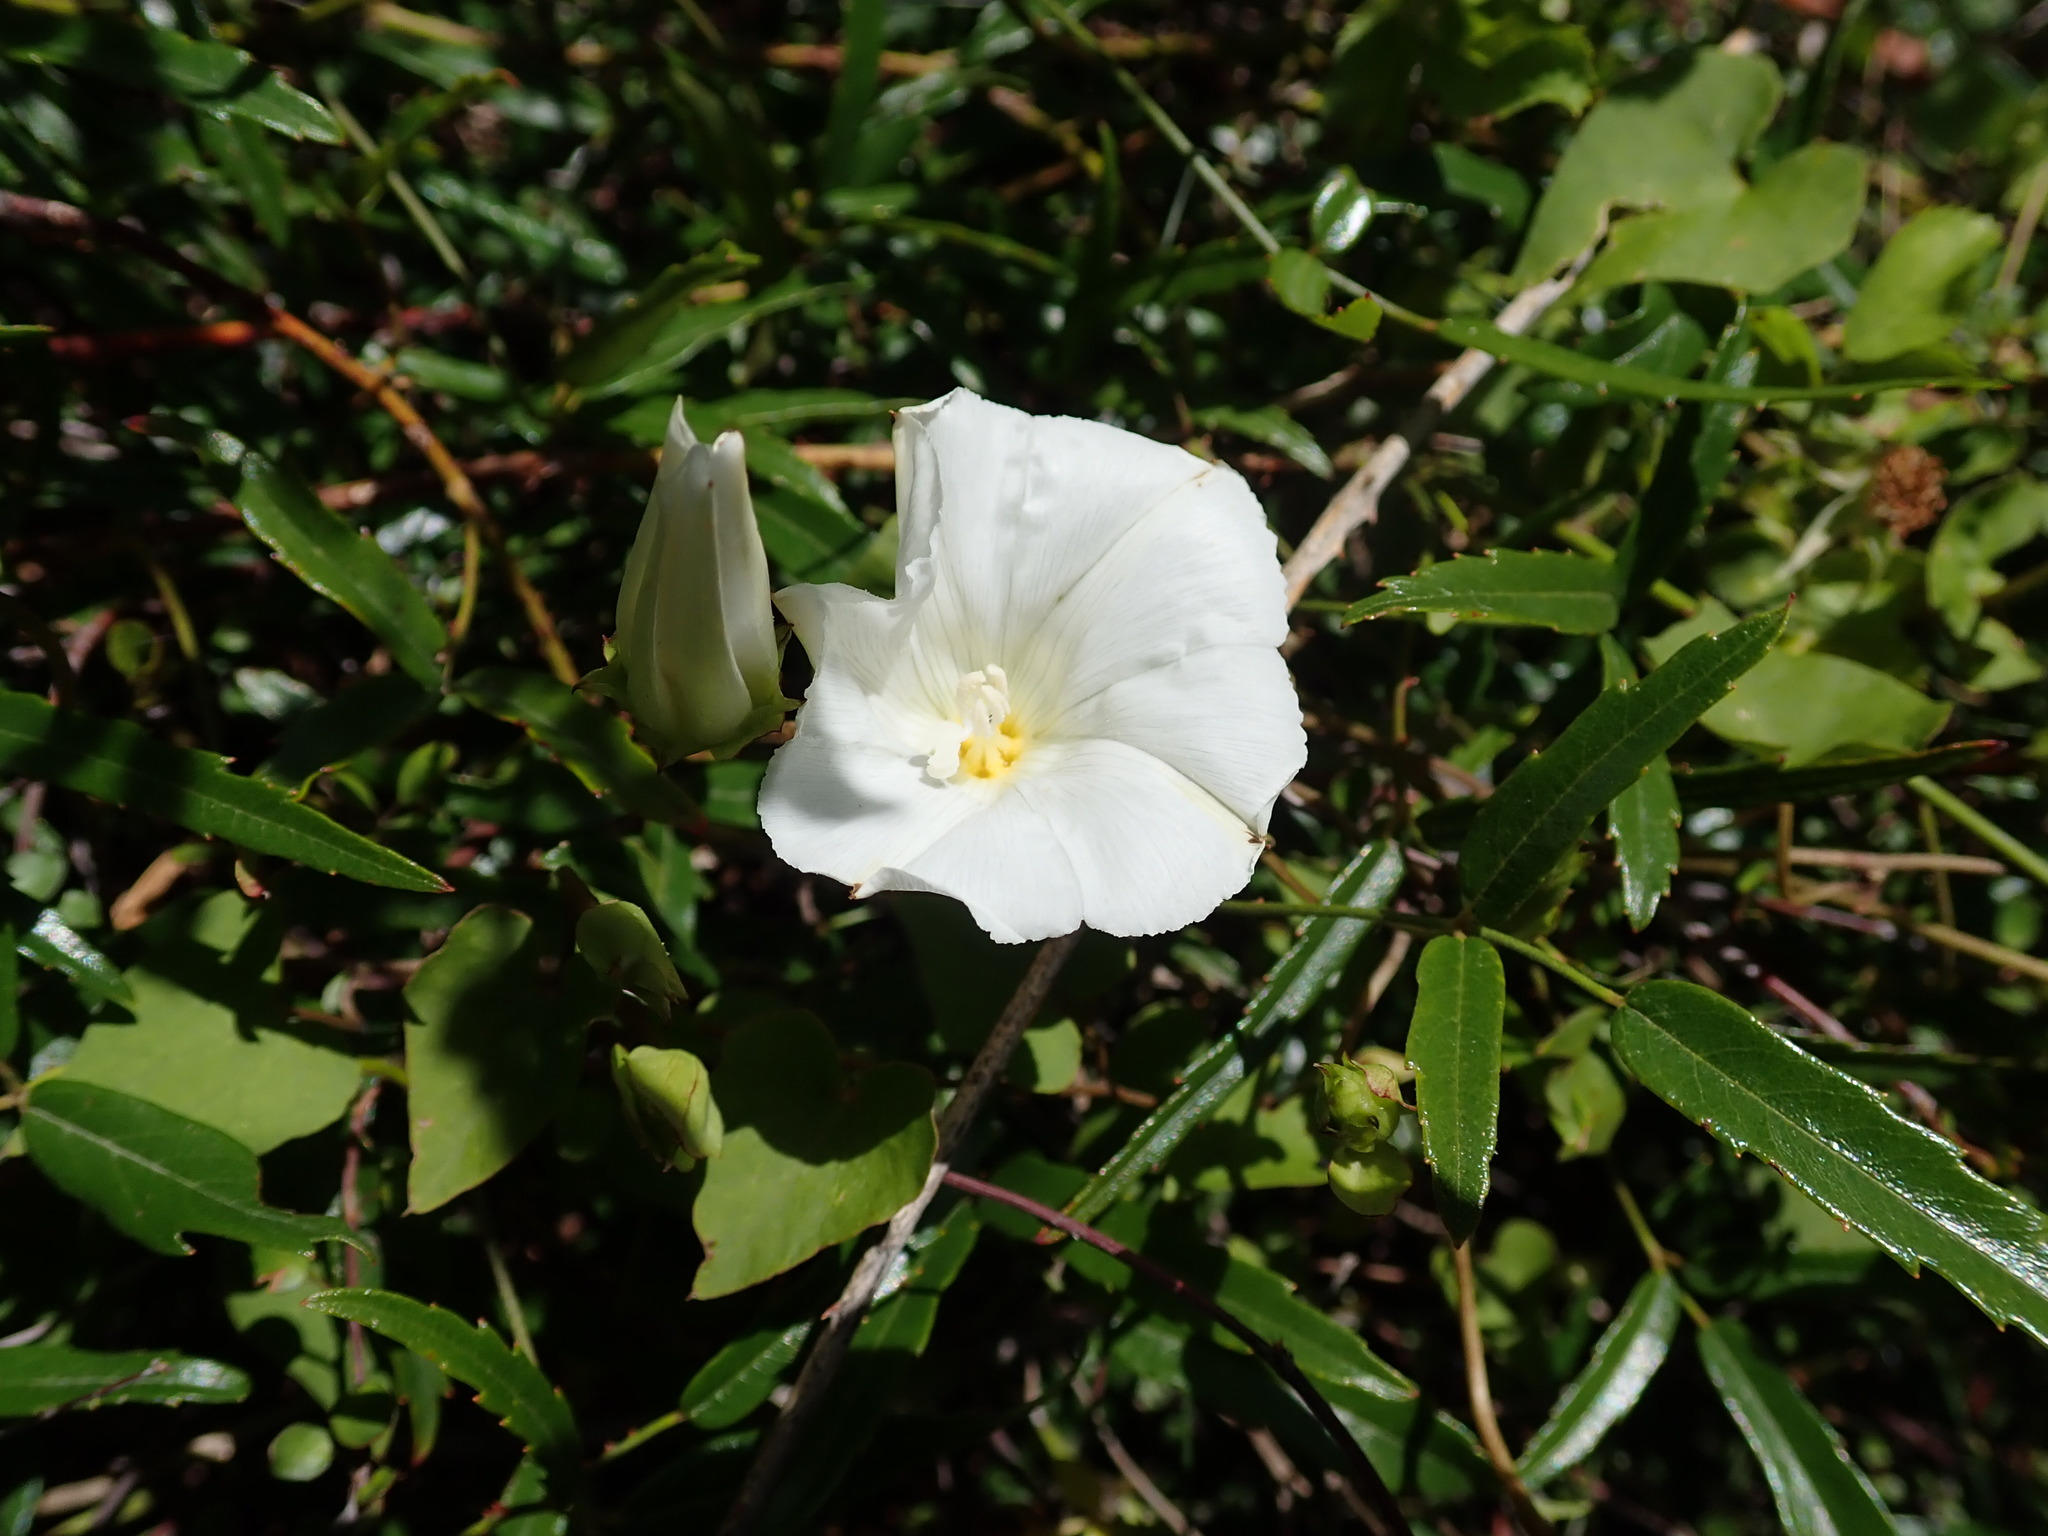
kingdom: Plantae
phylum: Tracheophyta
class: Magnoliopsida
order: Solanales
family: Convolvulaceae
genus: Calystegia
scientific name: Calystegia tuguriorum
